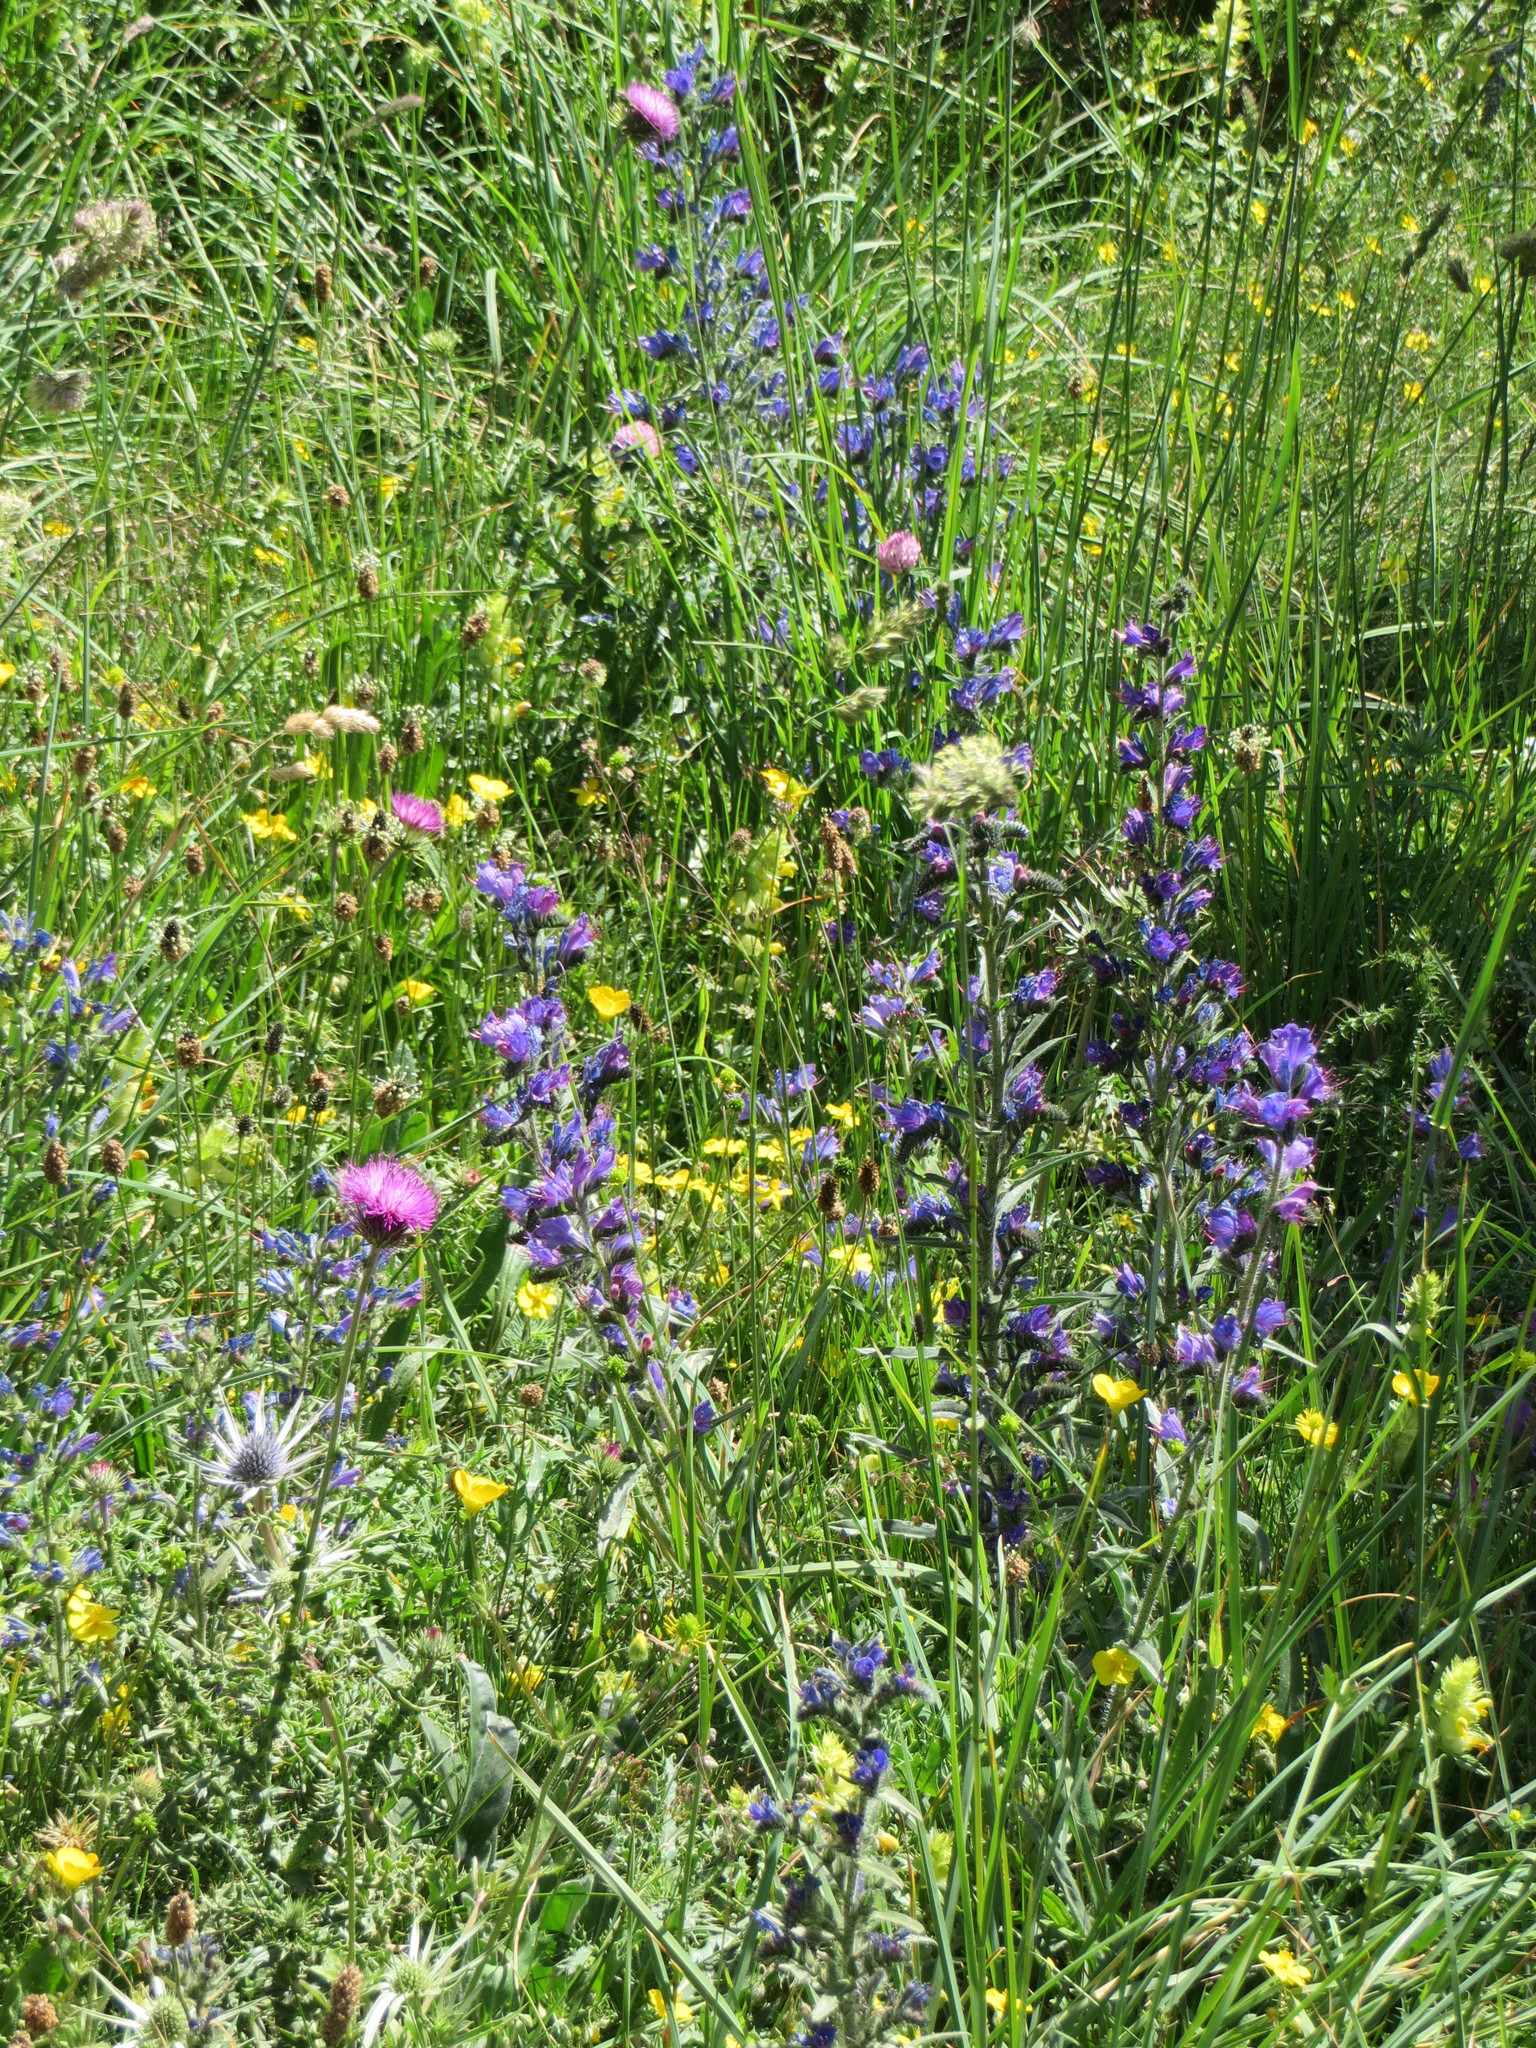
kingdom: Plantae
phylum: Tracheophyta
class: Magnoliopsida
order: Boraginales
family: Boraginaceae
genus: Echium
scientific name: Echium vulgare
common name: Common viper's bugloss
